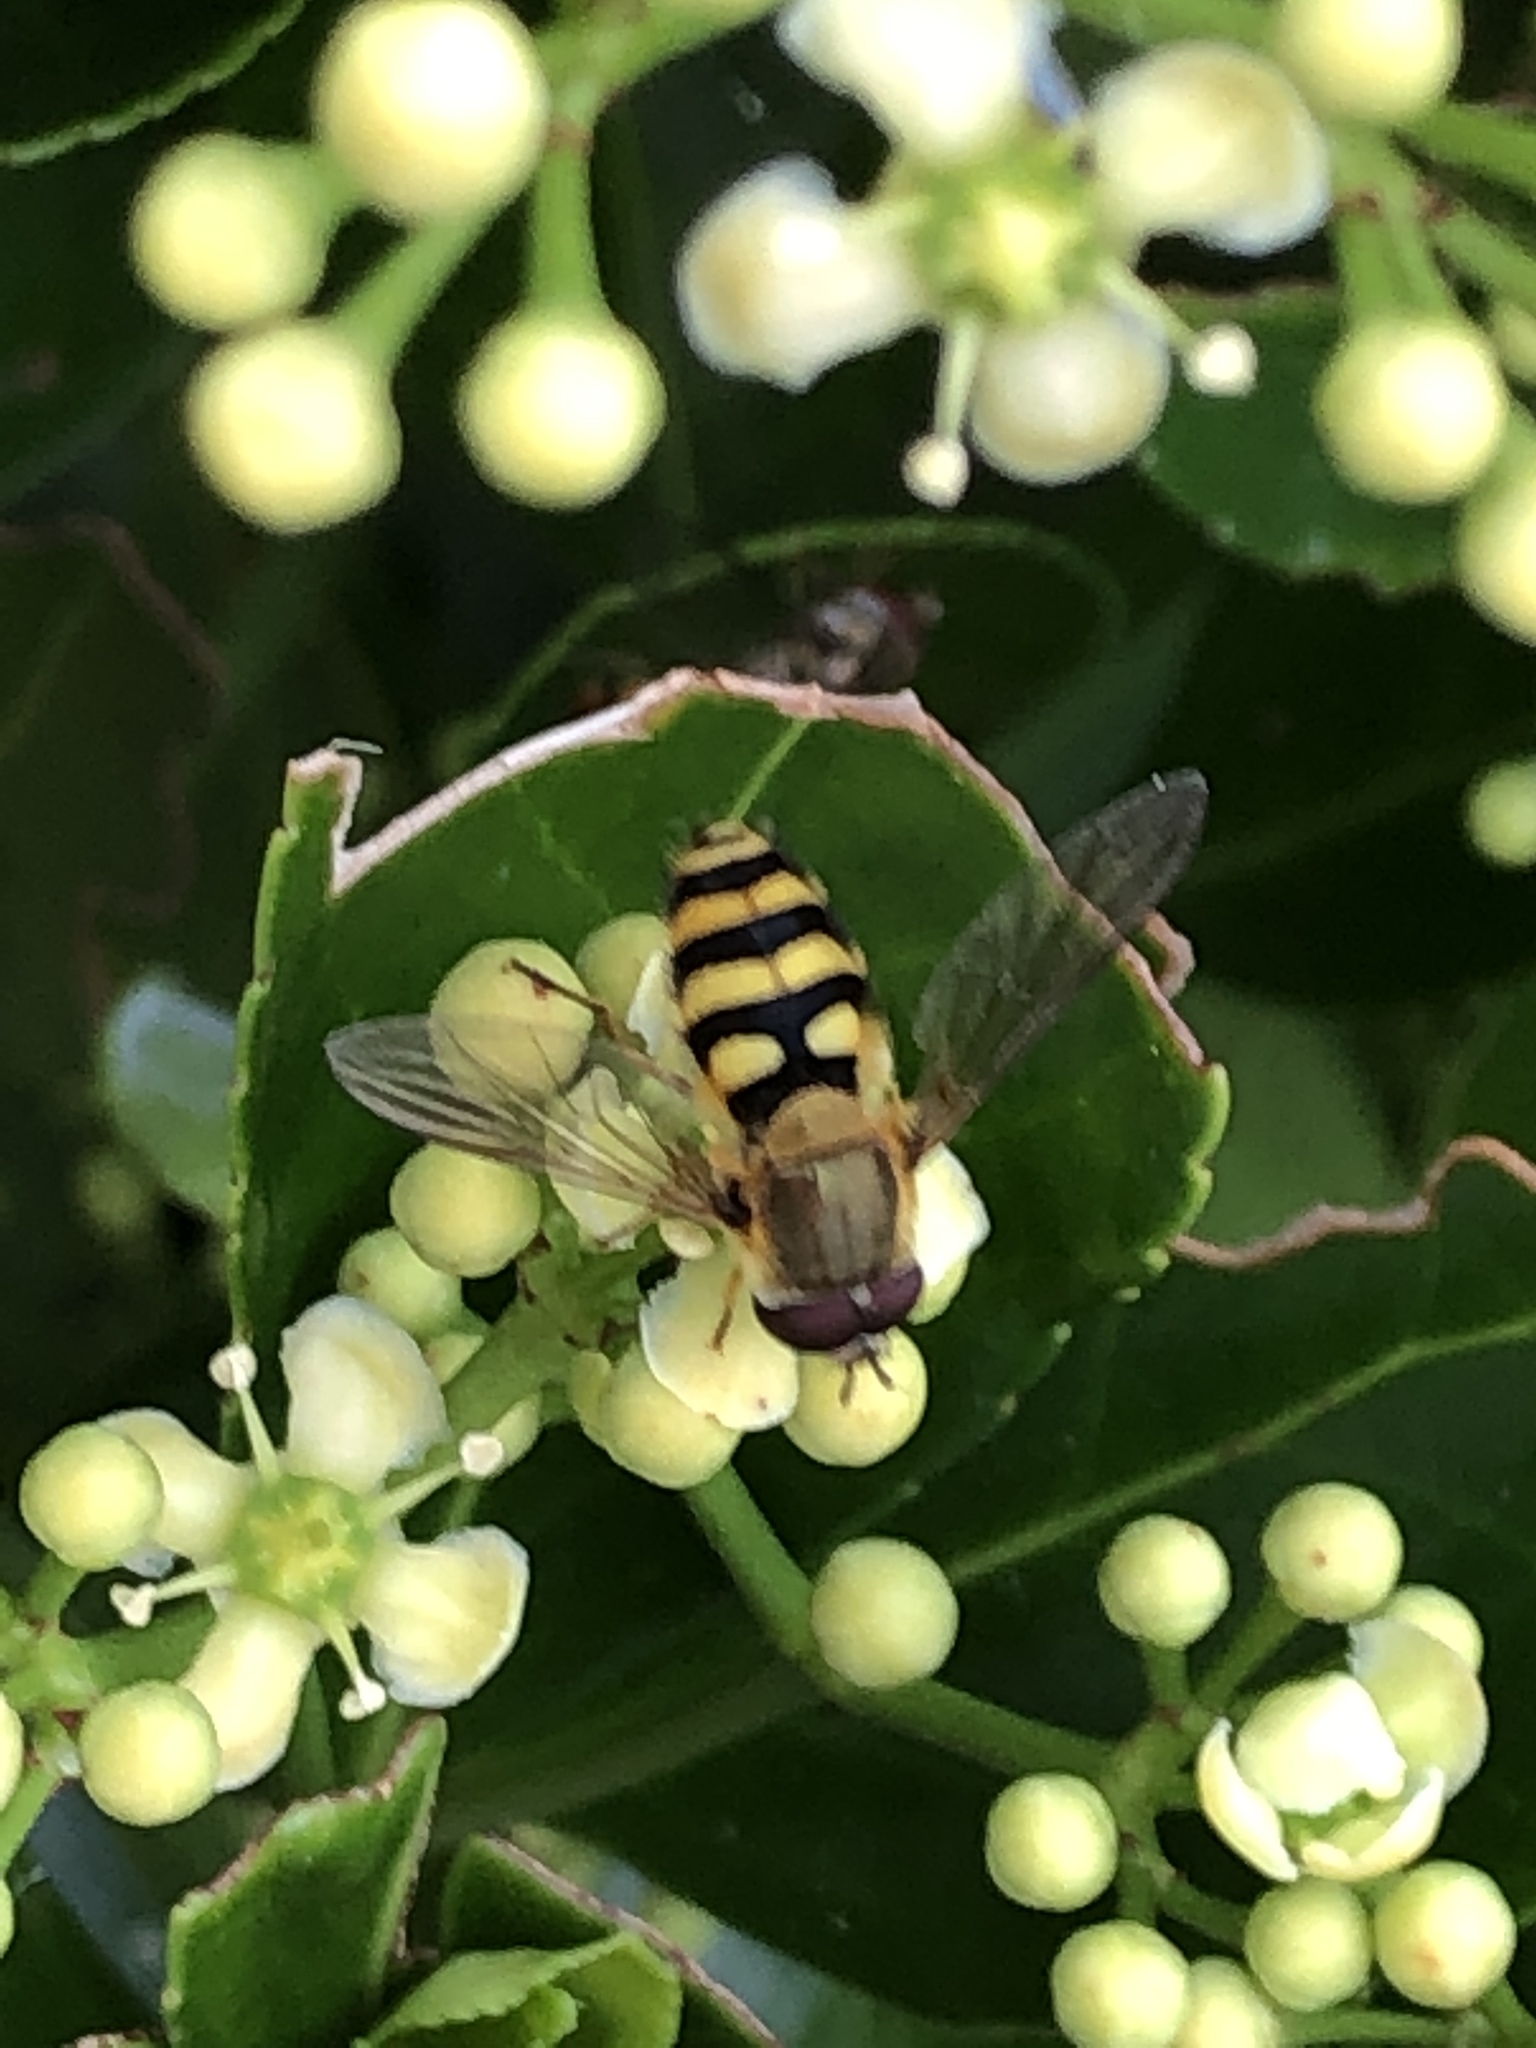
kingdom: Animalia
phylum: Arthropoda
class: Insecta
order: Diptera
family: Syrphidae
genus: Syrphus
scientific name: Syrphus
